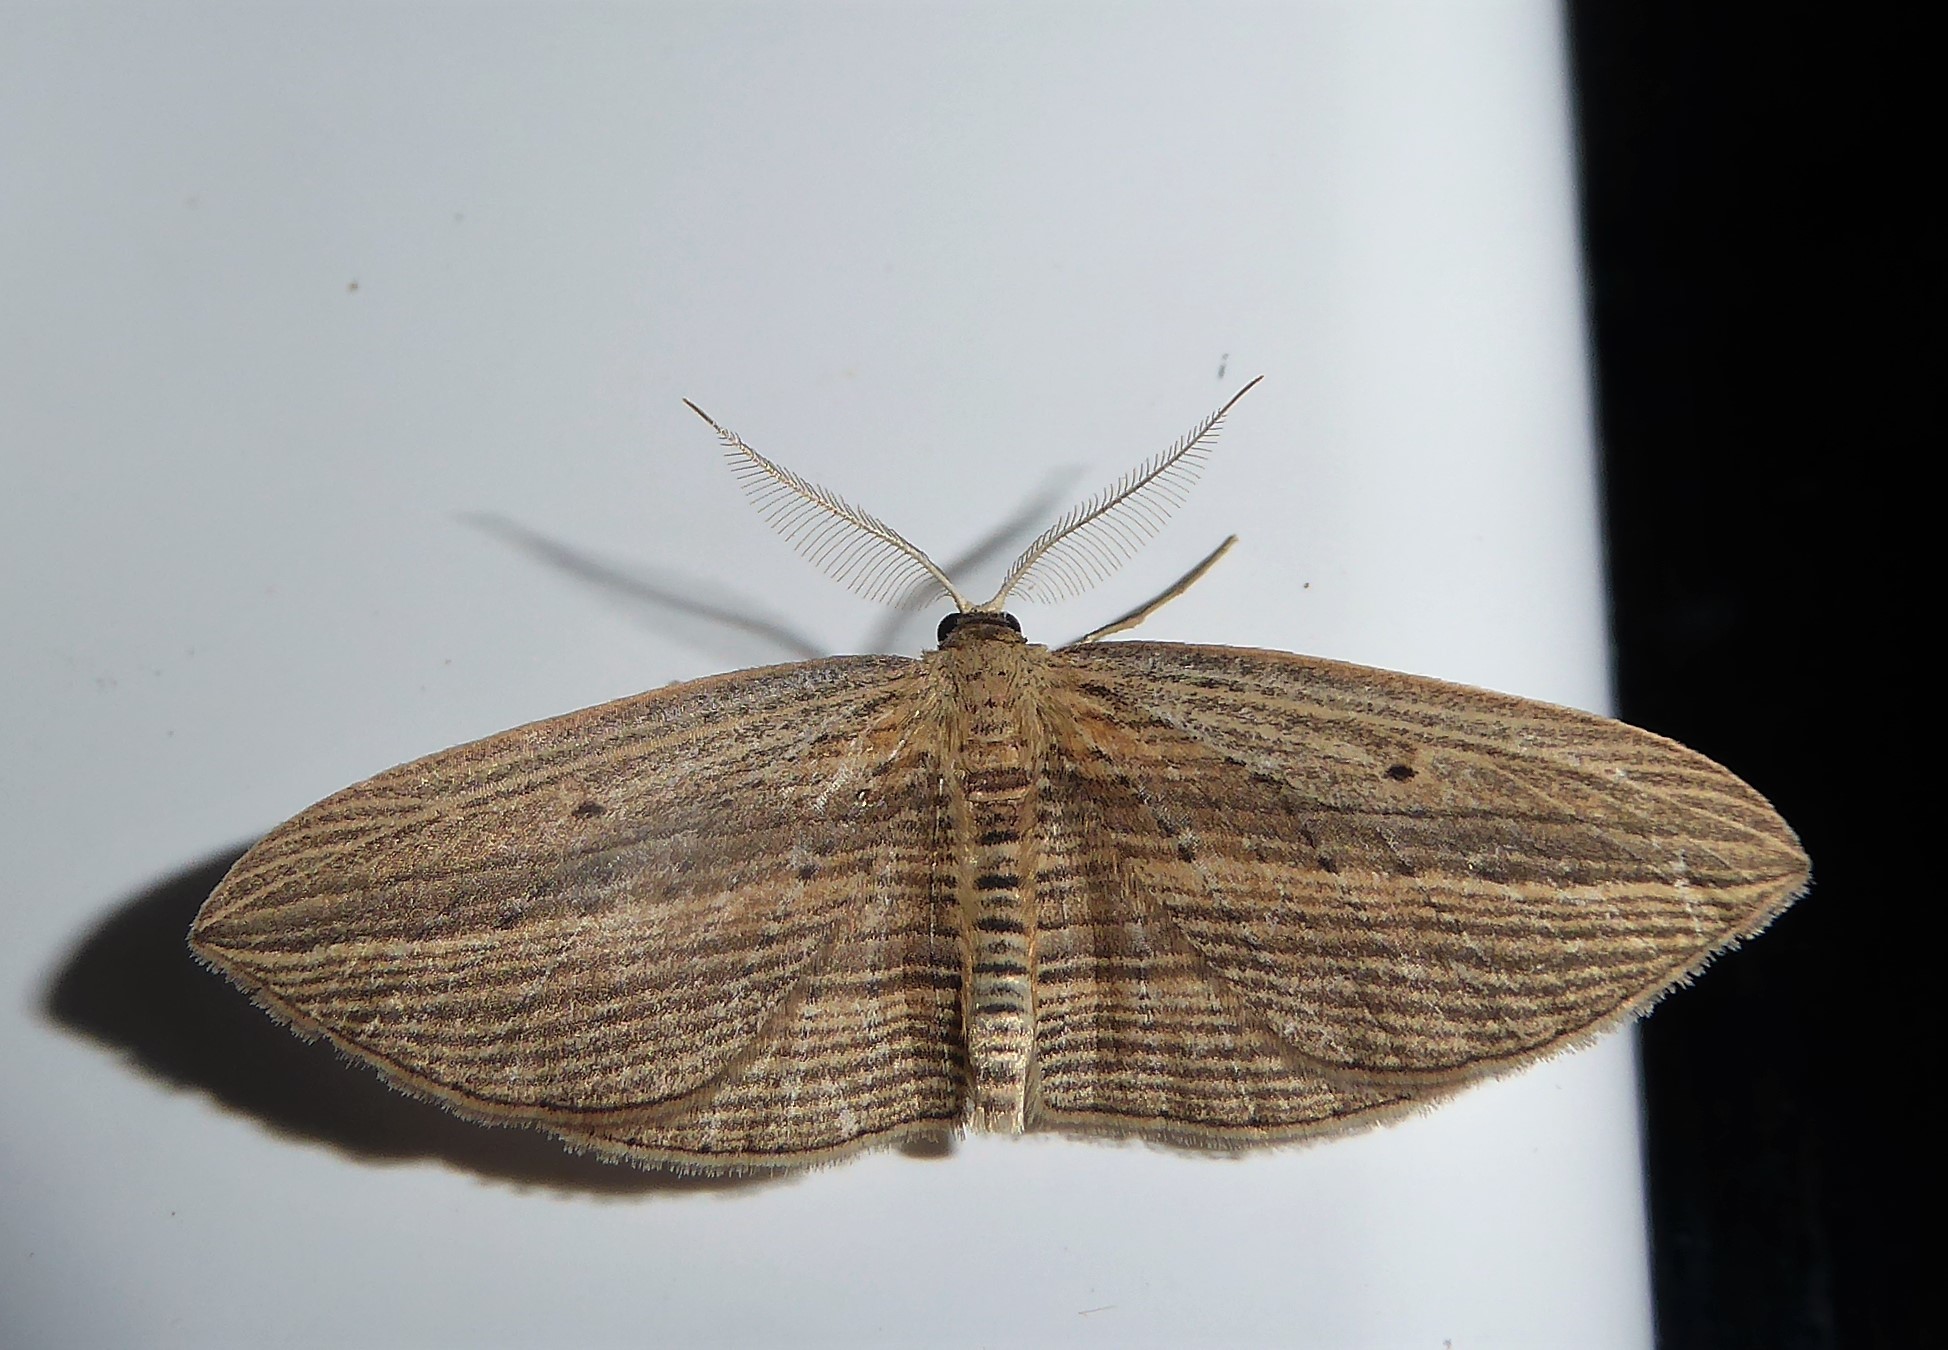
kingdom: Animalia
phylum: Arthropoda
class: Insecta
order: Lepidoptera
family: Geometridae
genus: Epiphryne
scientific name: Epiphryne verriculata
